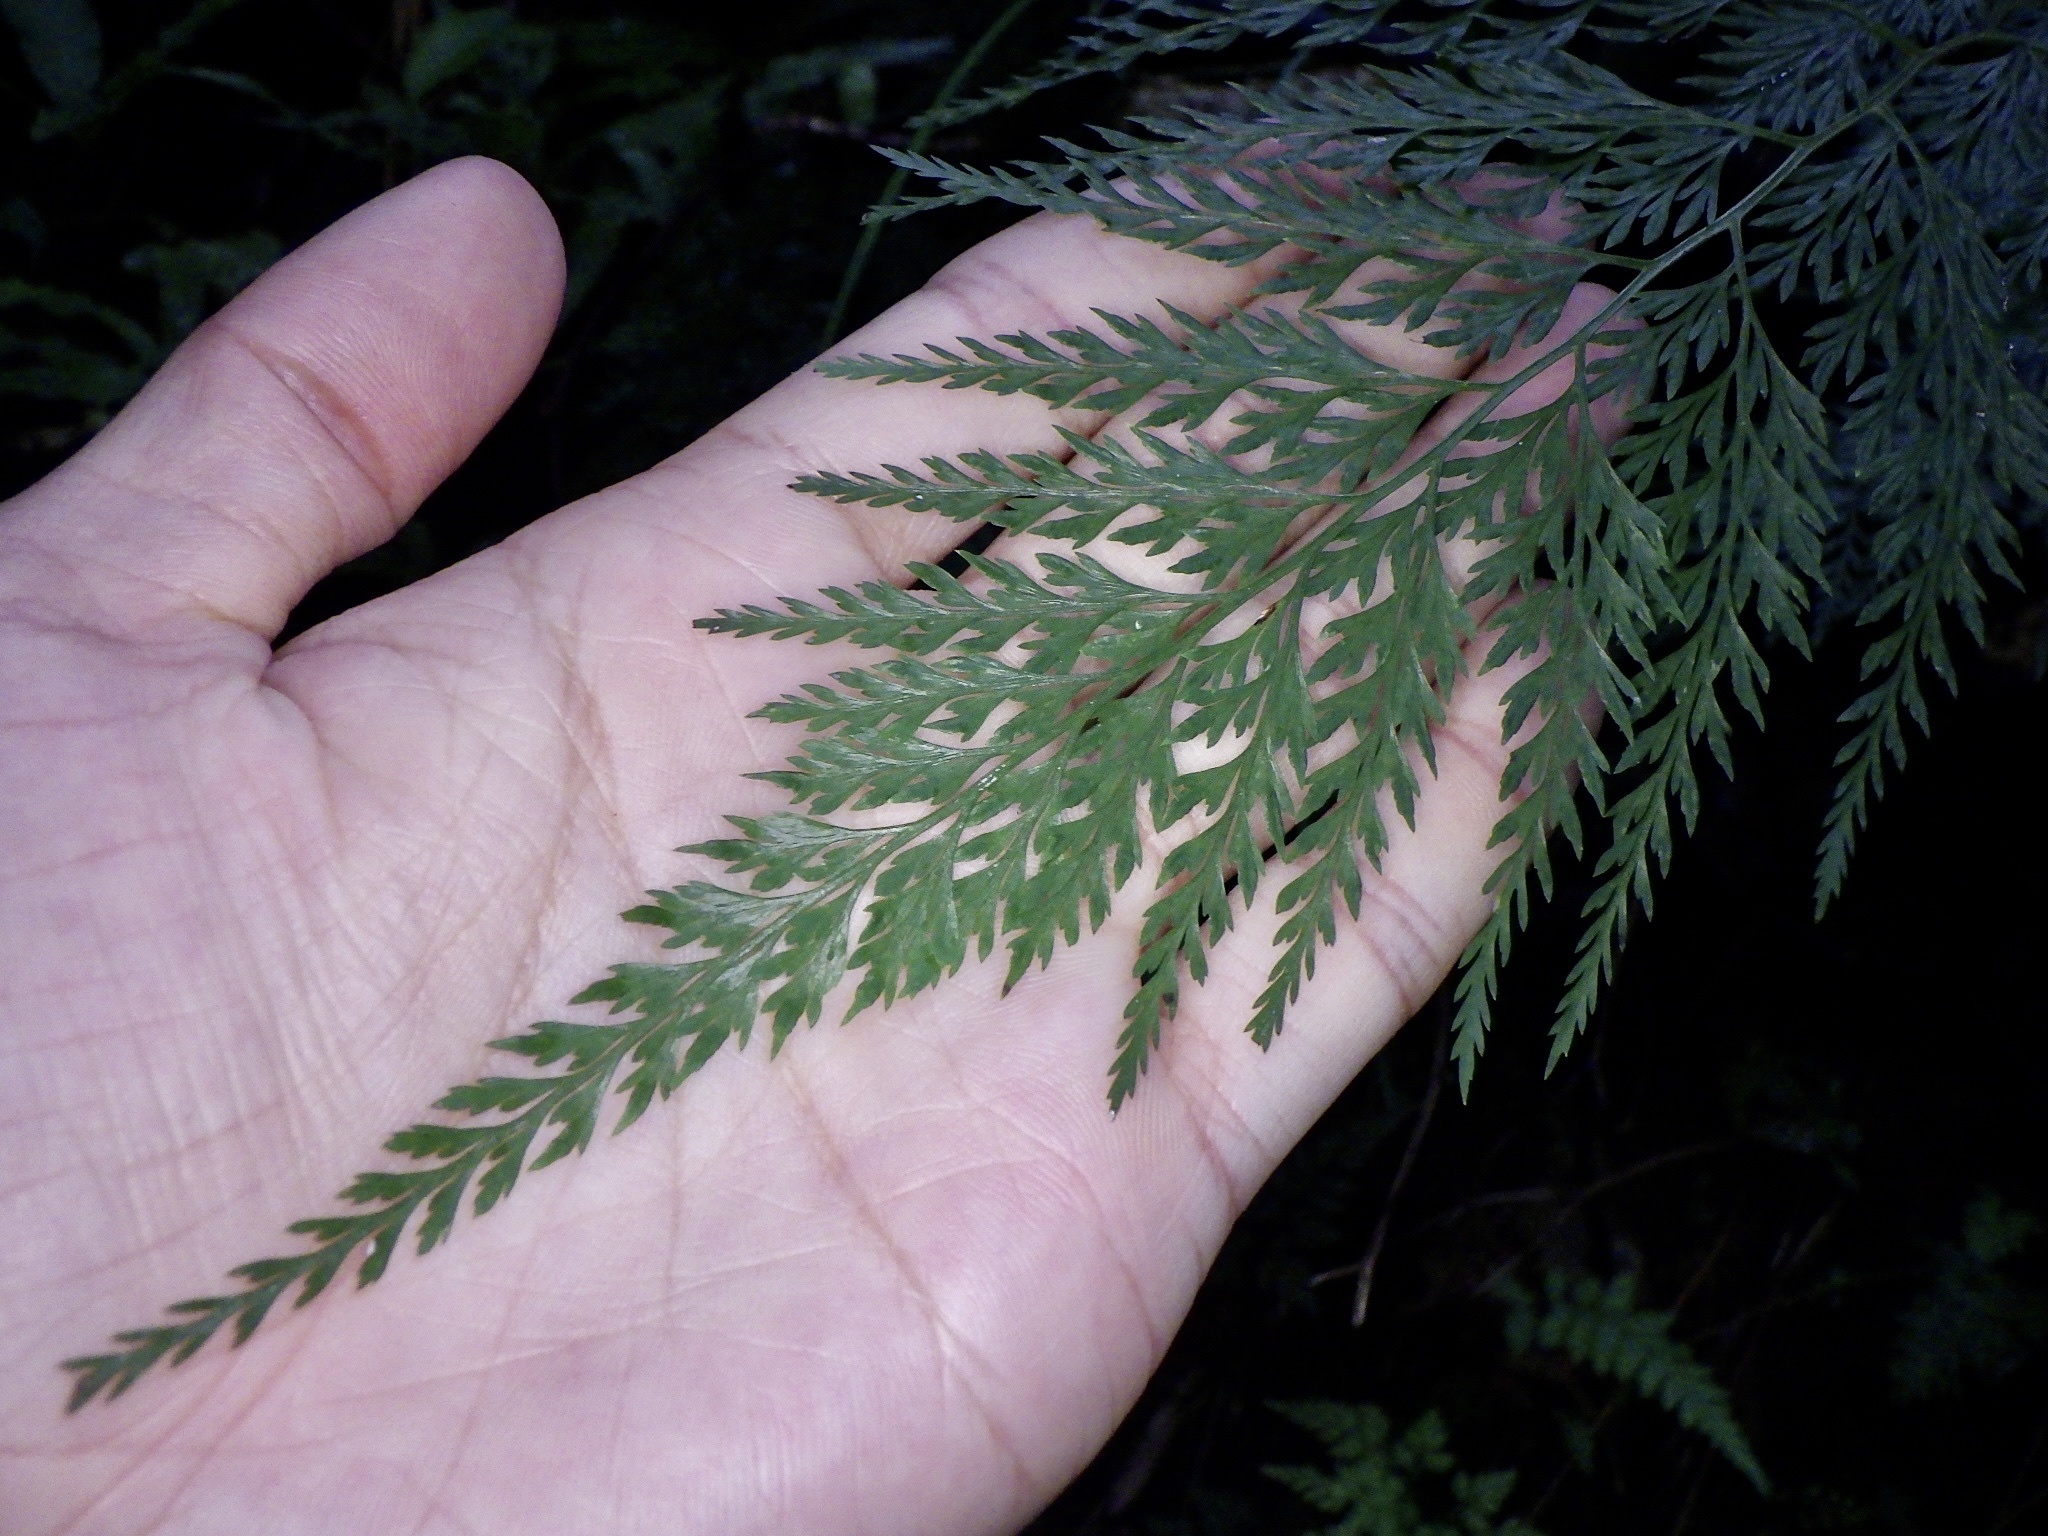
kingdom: Plantae
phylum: Tracheophyta
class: Polypodiopsida
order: Polypodiales
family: Pteridaceae
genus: Onychium
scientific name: Onychium japonicum
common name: Carrot fern
